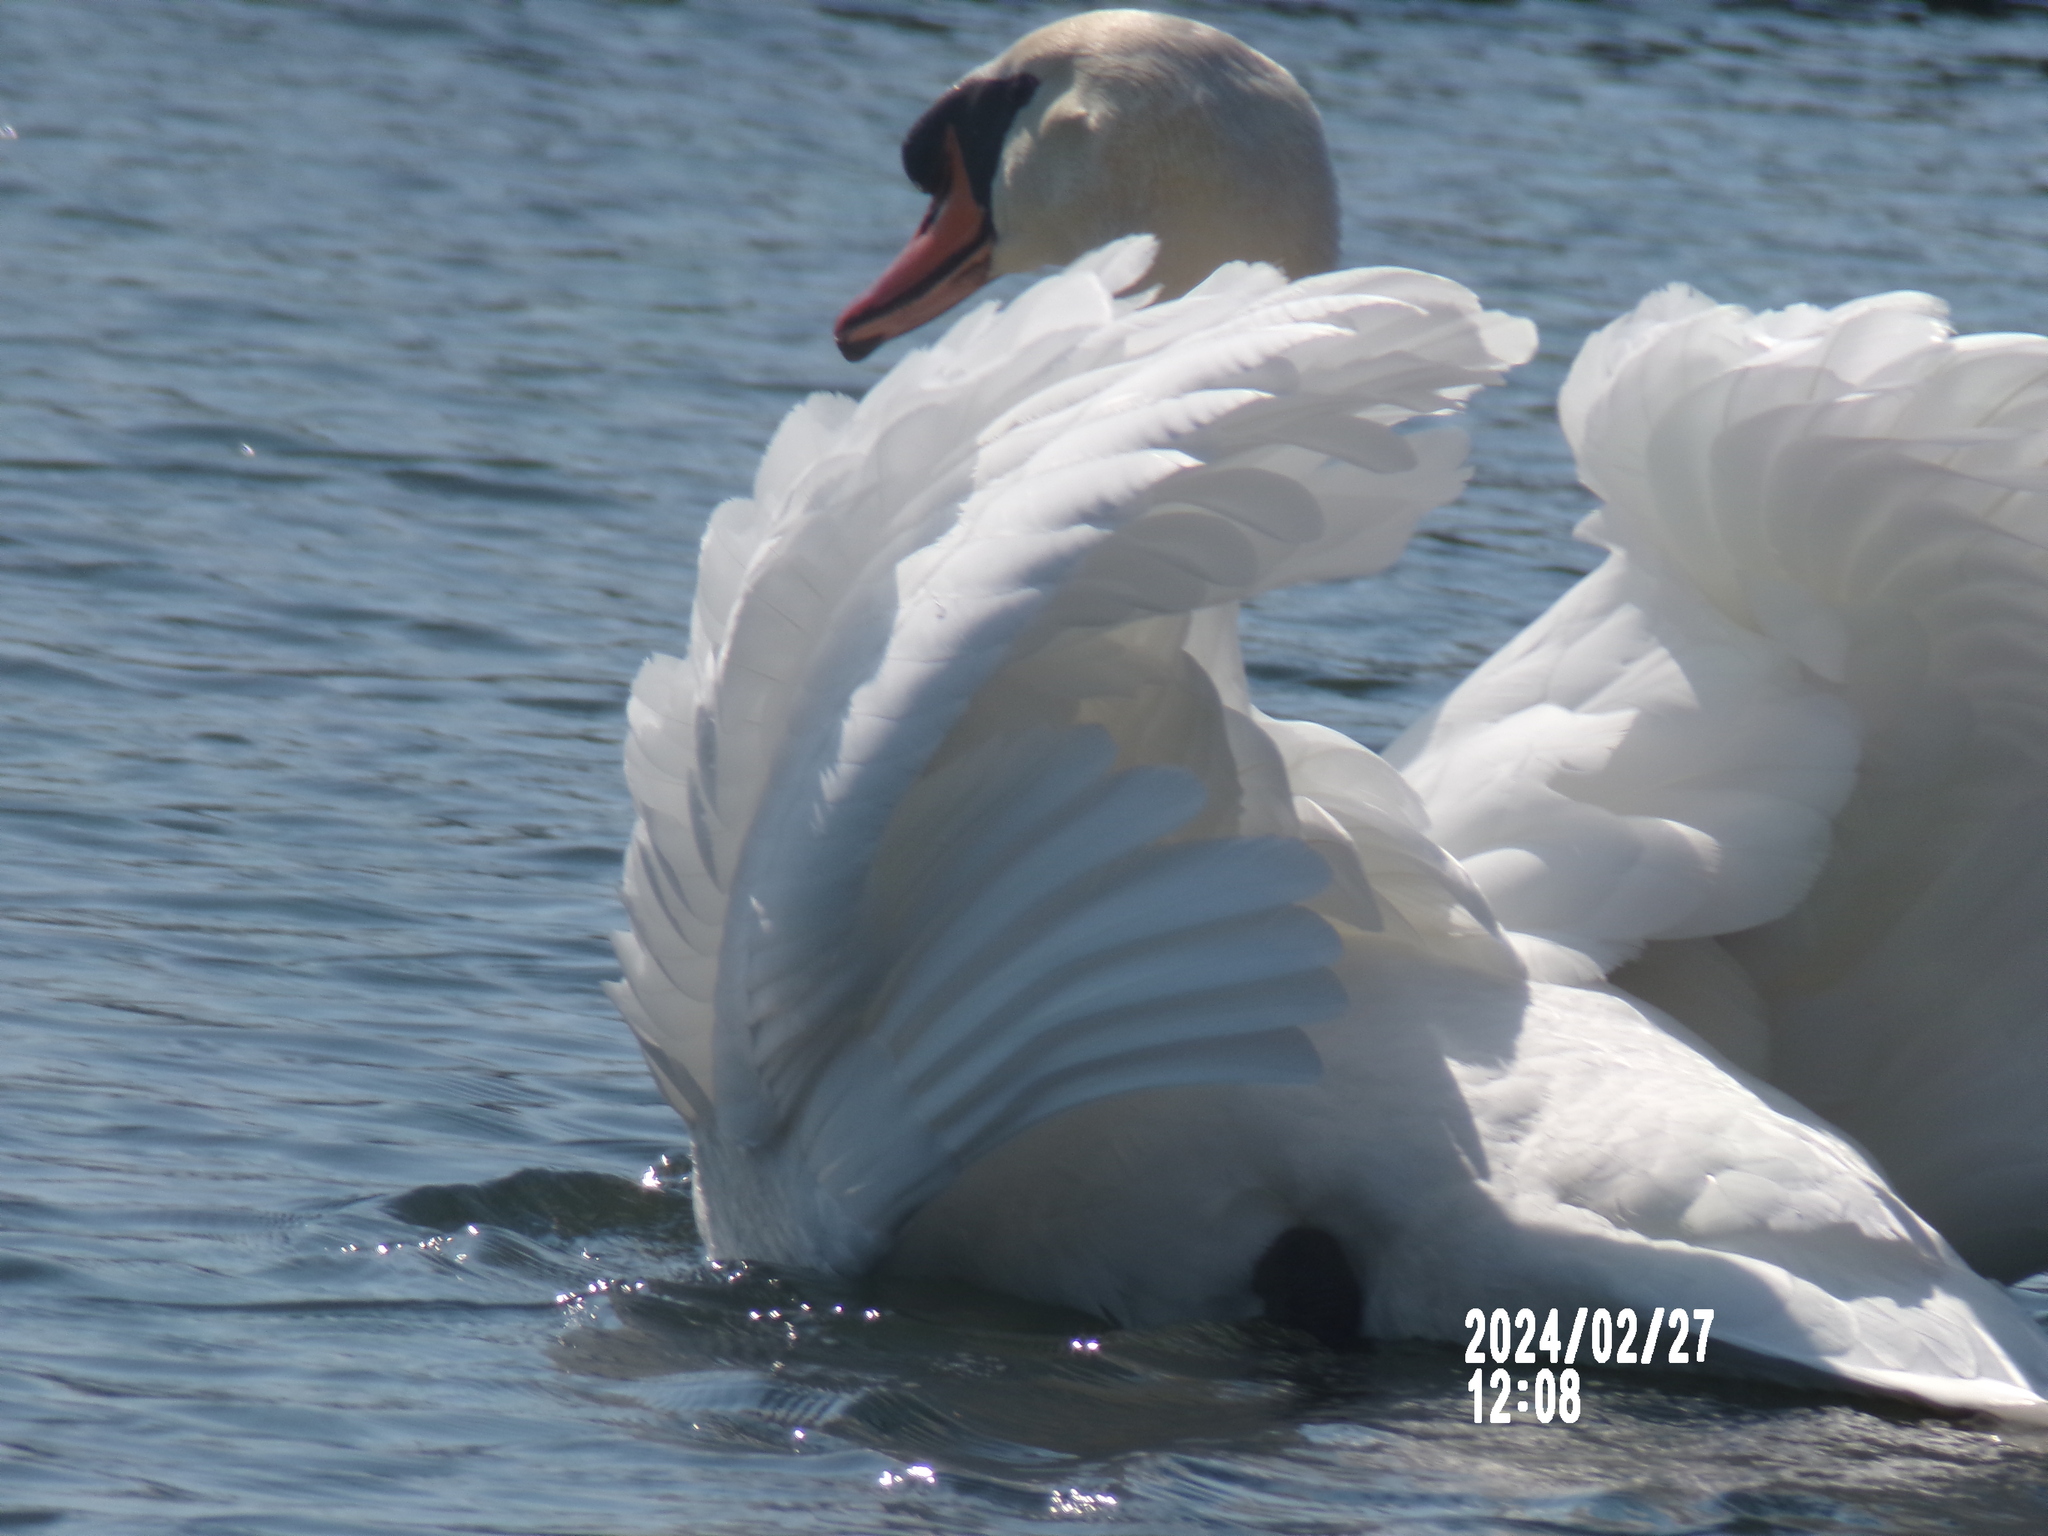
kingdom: Animalia
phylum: Chordata
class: Aves
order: Anseriformes
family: Anatidae
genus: Cygnus
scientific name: Cygnus olor
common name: Mute swan
